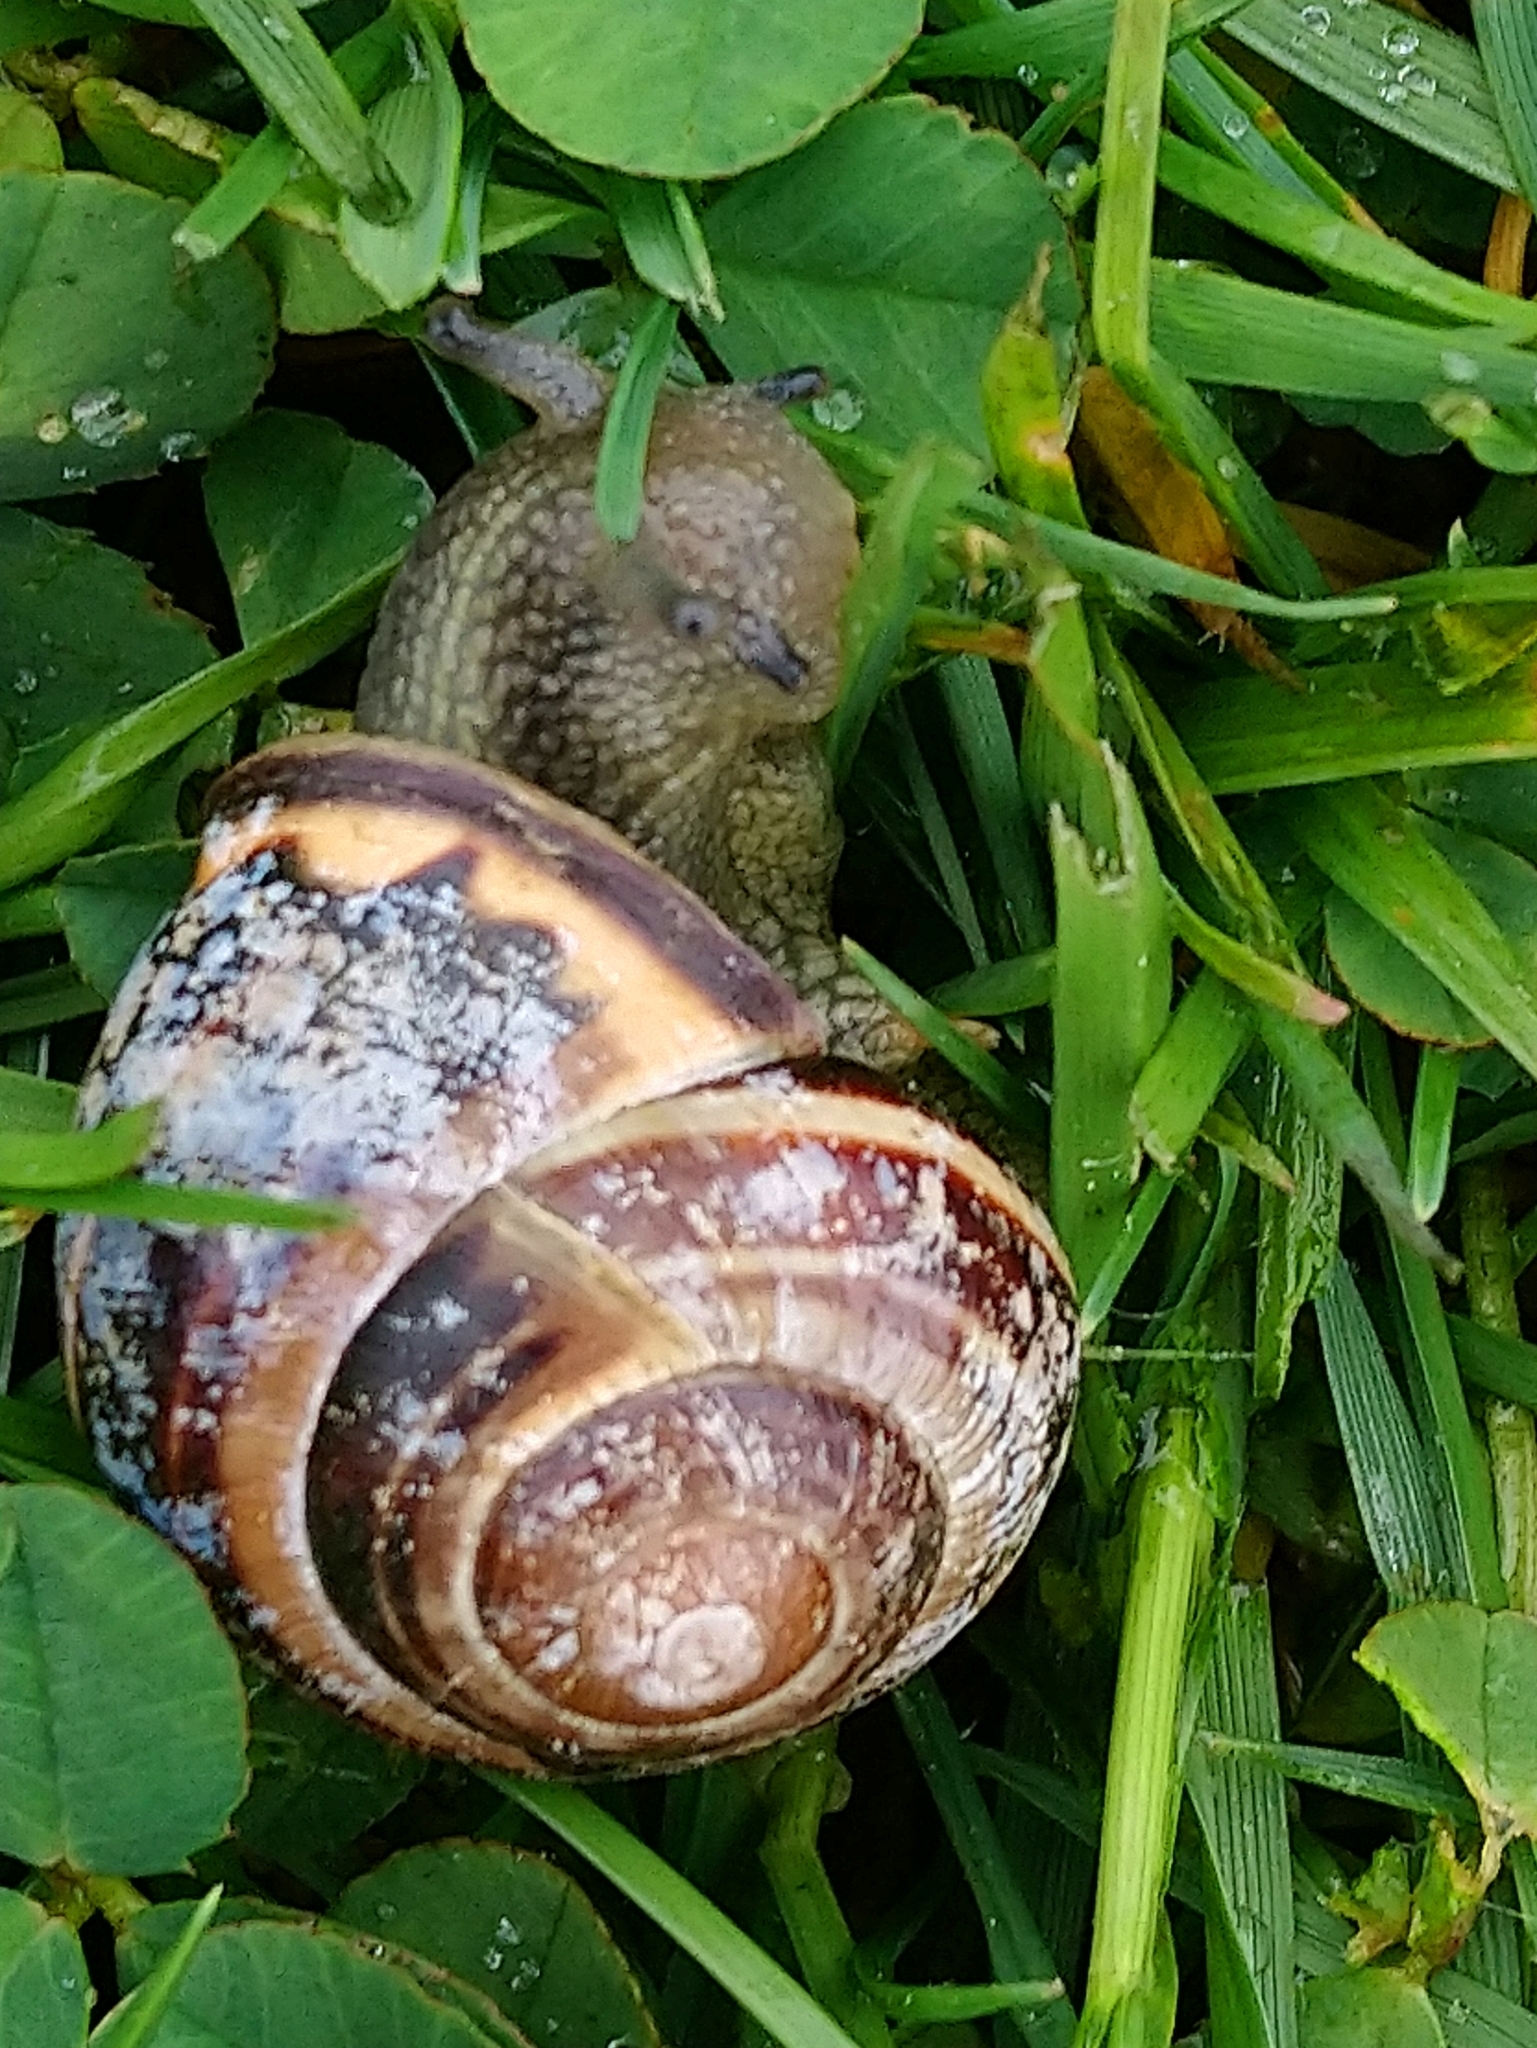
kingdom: Animalia
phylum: Mollusca
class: Gastropoda
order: Stylommatophora
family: Helicidae
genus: Cepaea
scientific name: Cepaea nemoralis
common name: Grovesnail
